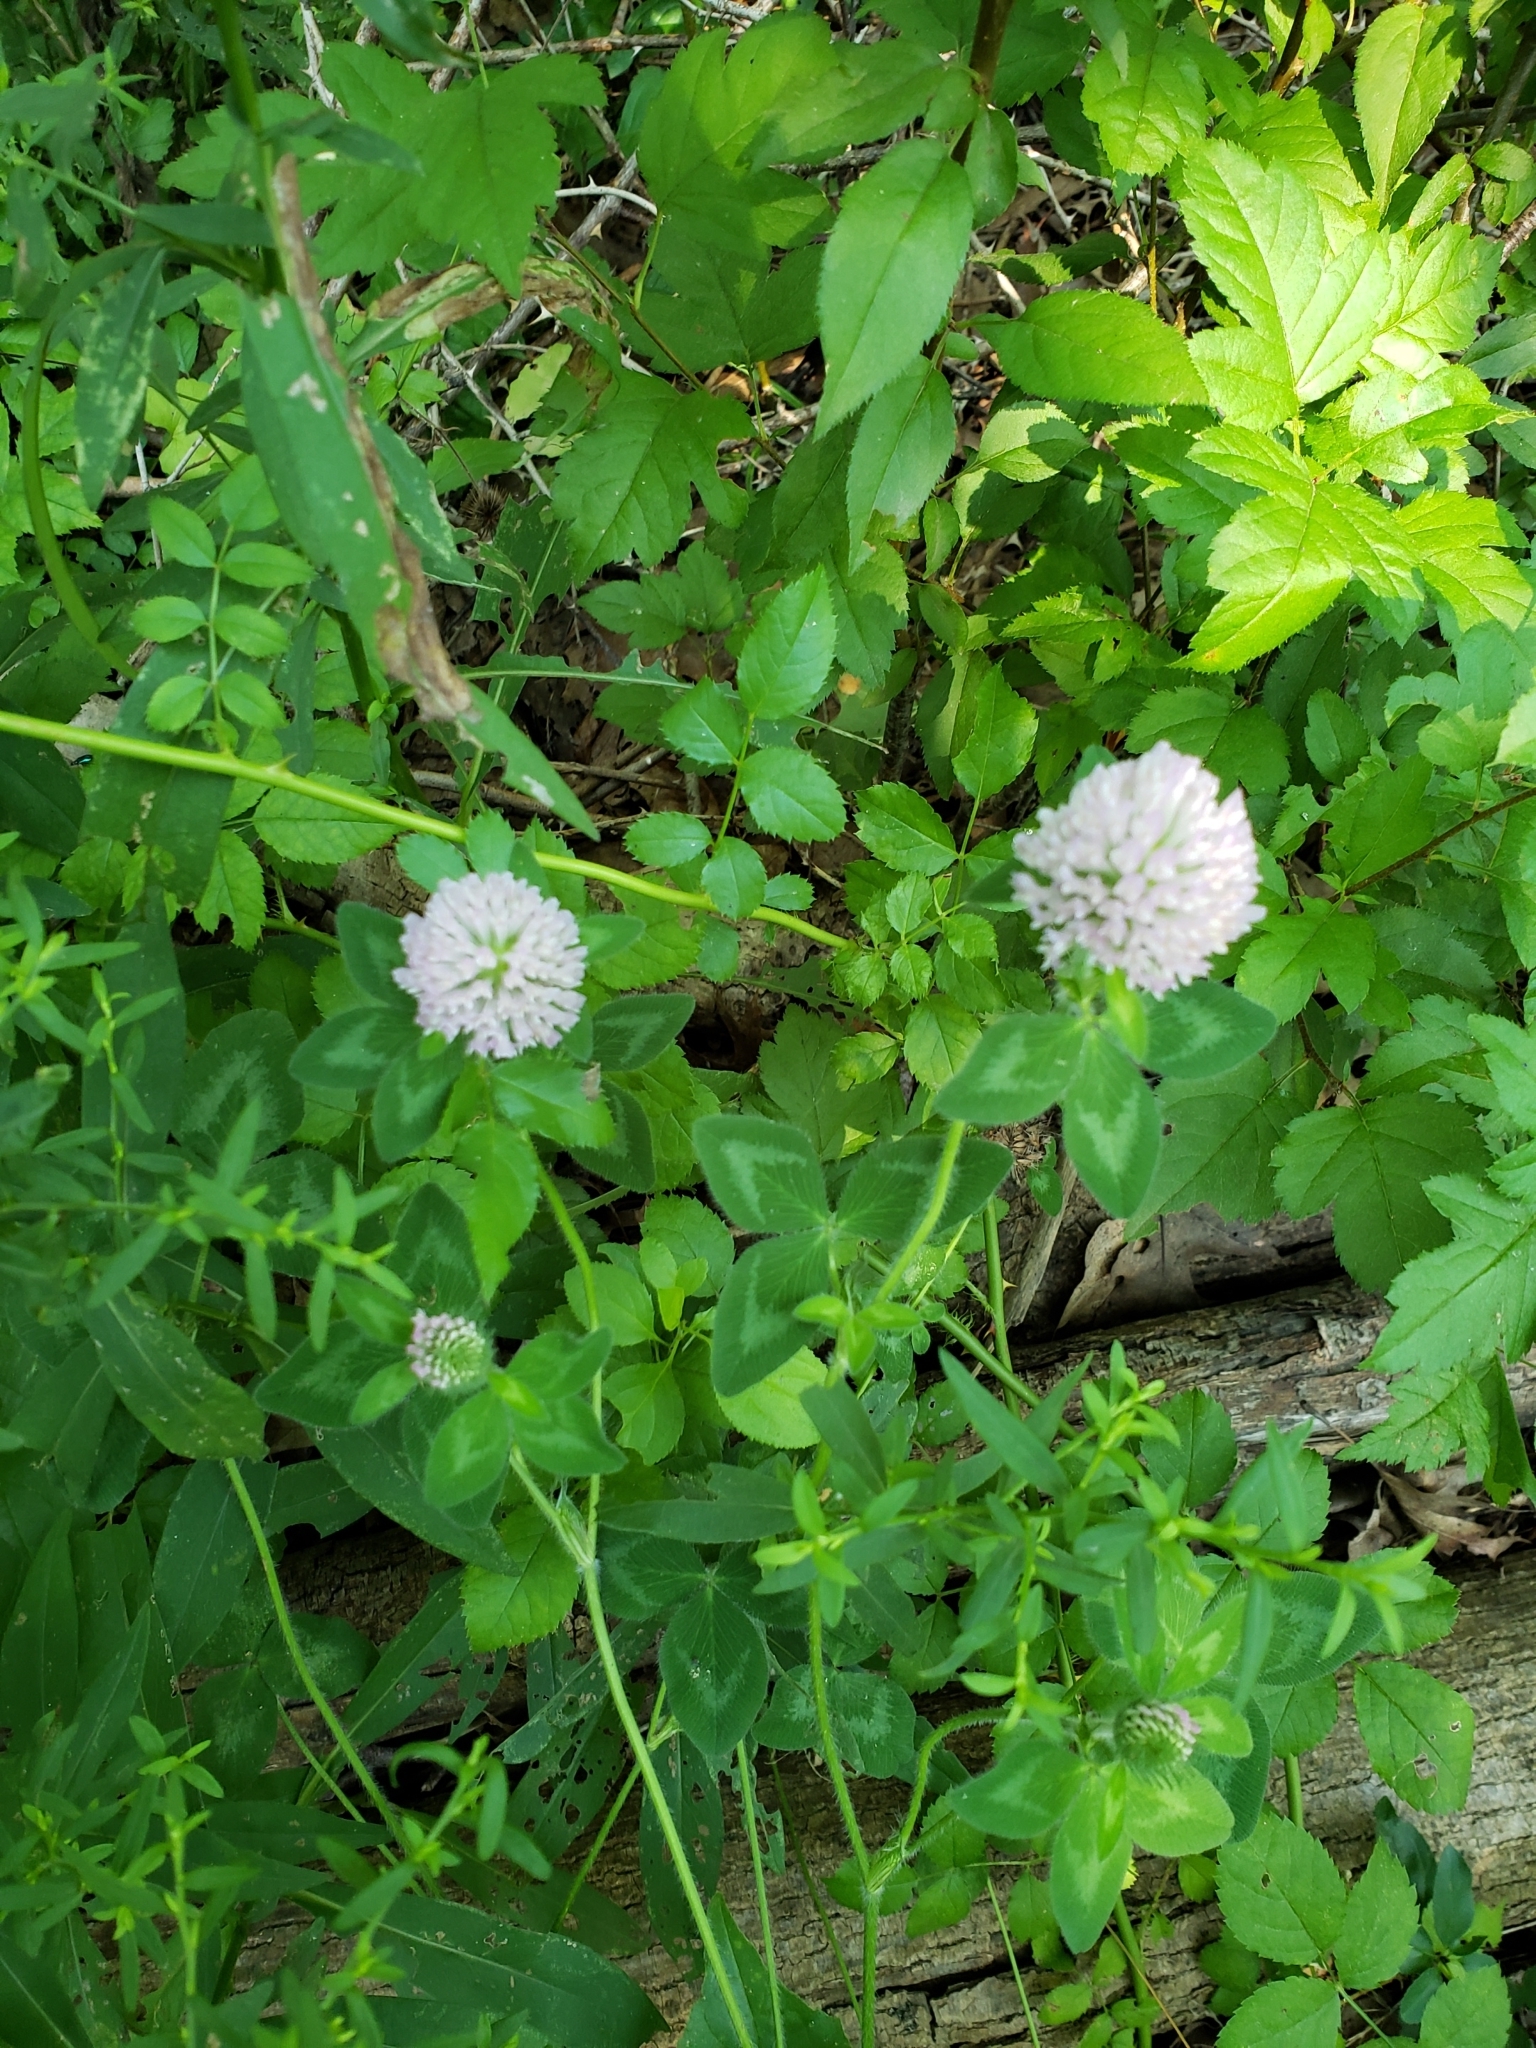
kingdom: Plantae
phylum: Tracheophyta
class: Magnoliopsida
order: Fabales
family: Fabaceae
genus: Trifolium
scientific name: Trifolium pratense
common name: Red clover
